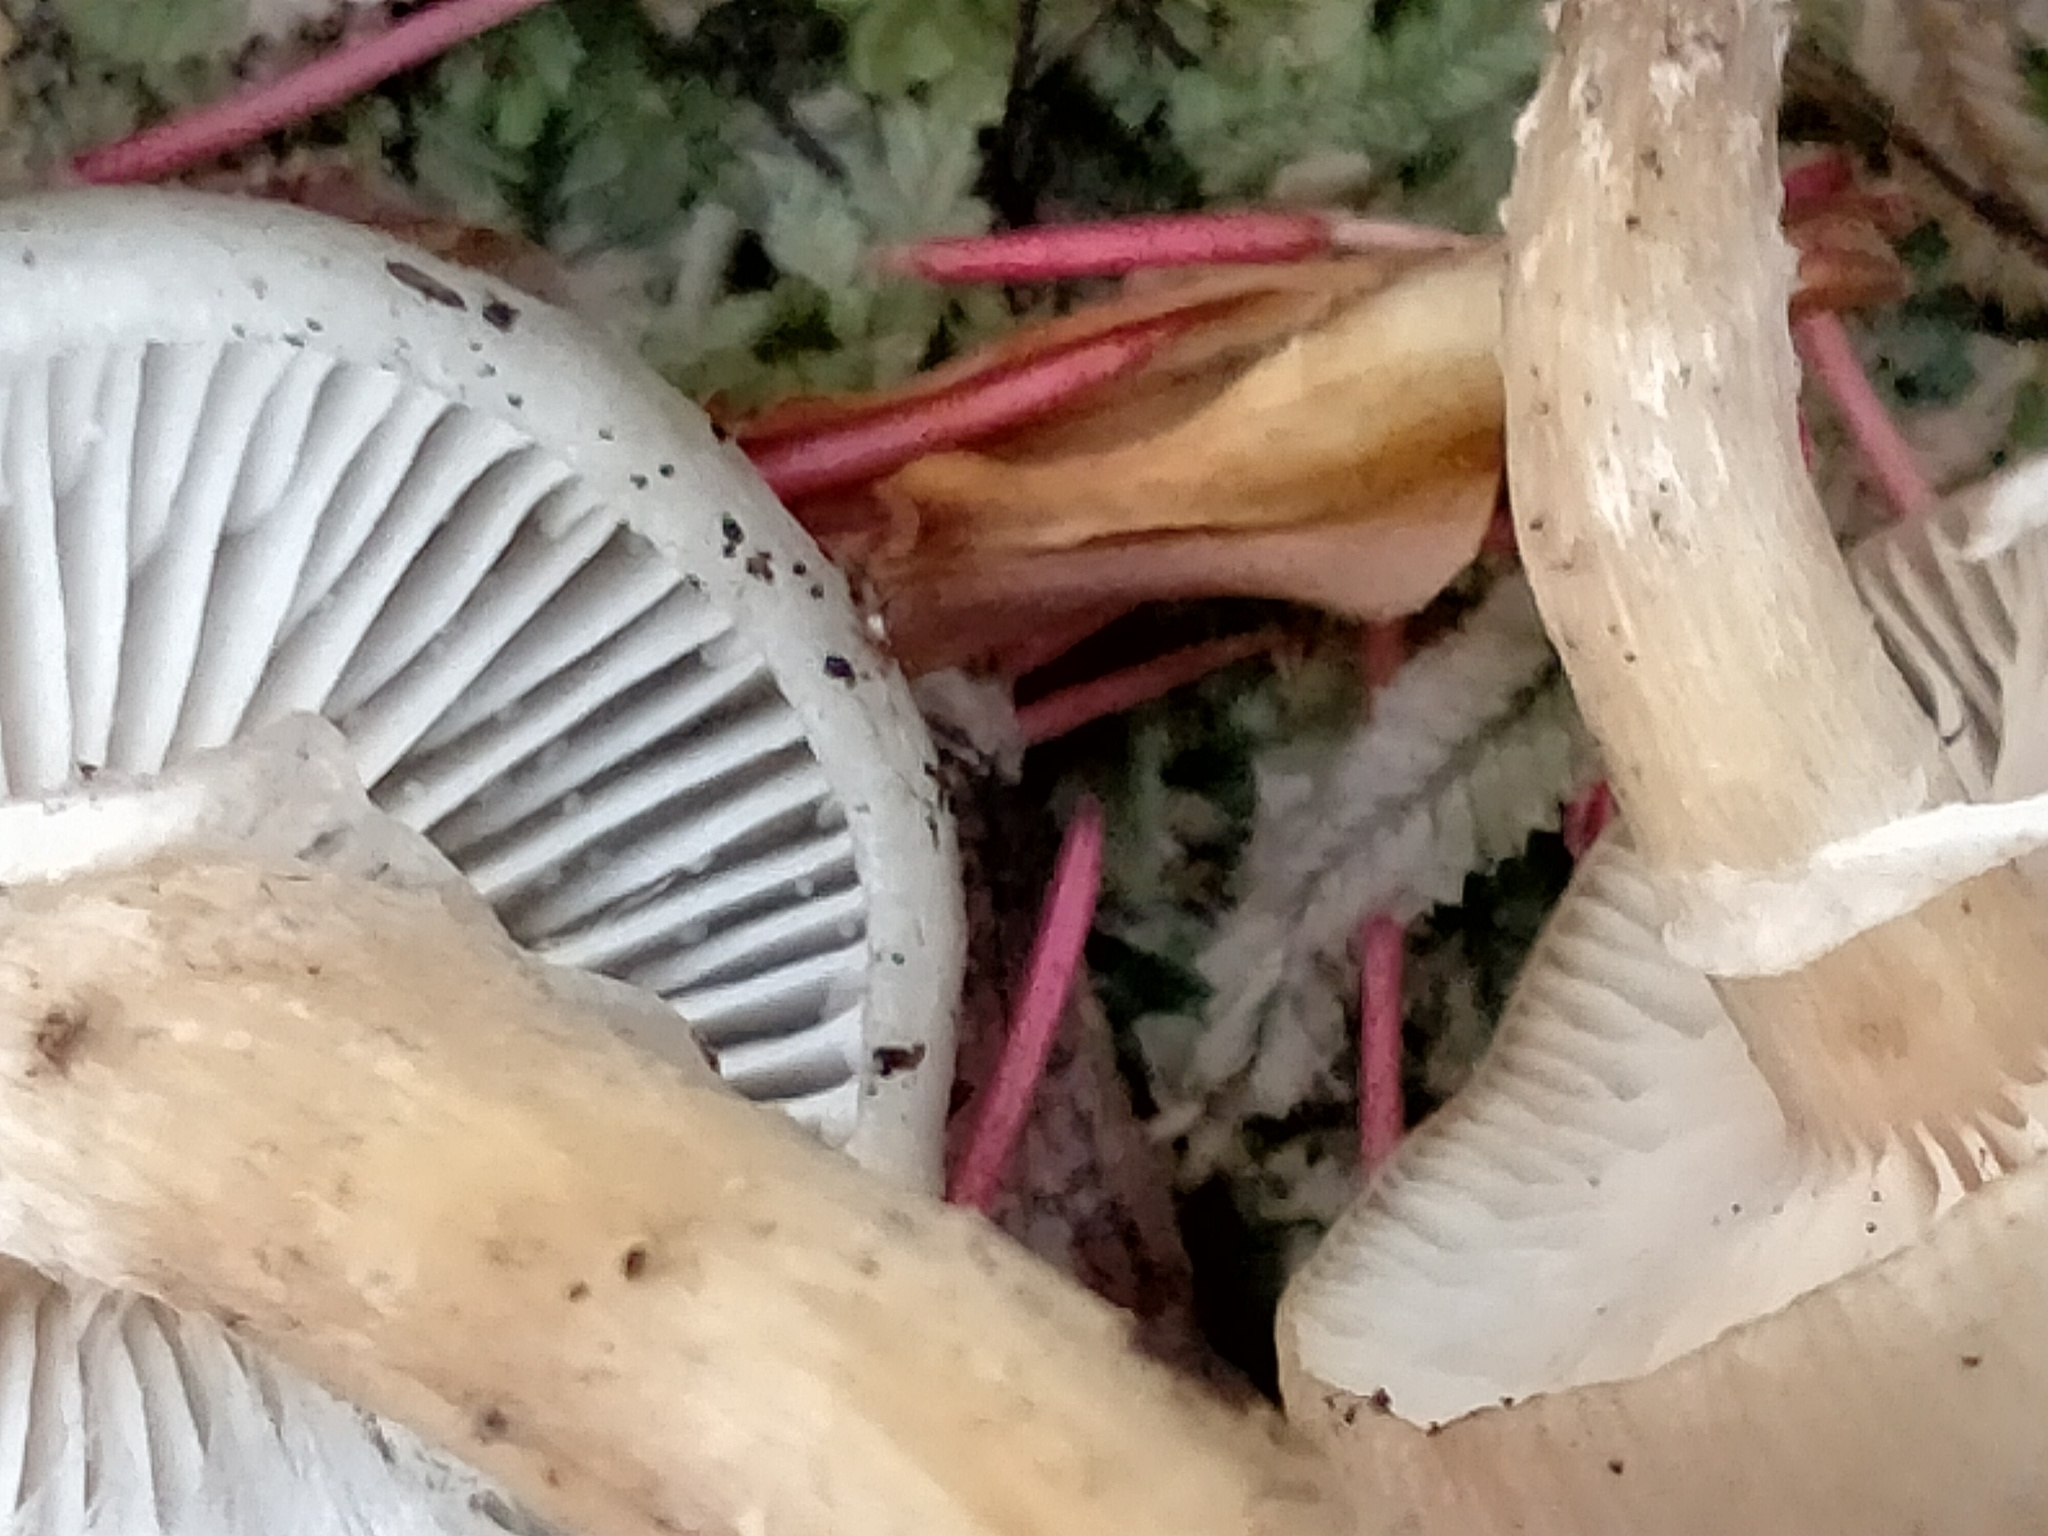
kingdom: Fungi
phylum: Basidiomycota
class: Agaricomycetes
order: Agaricales
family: Physalacriaceae
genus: Armillaria
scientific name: Armillaria novae-zelandiae
